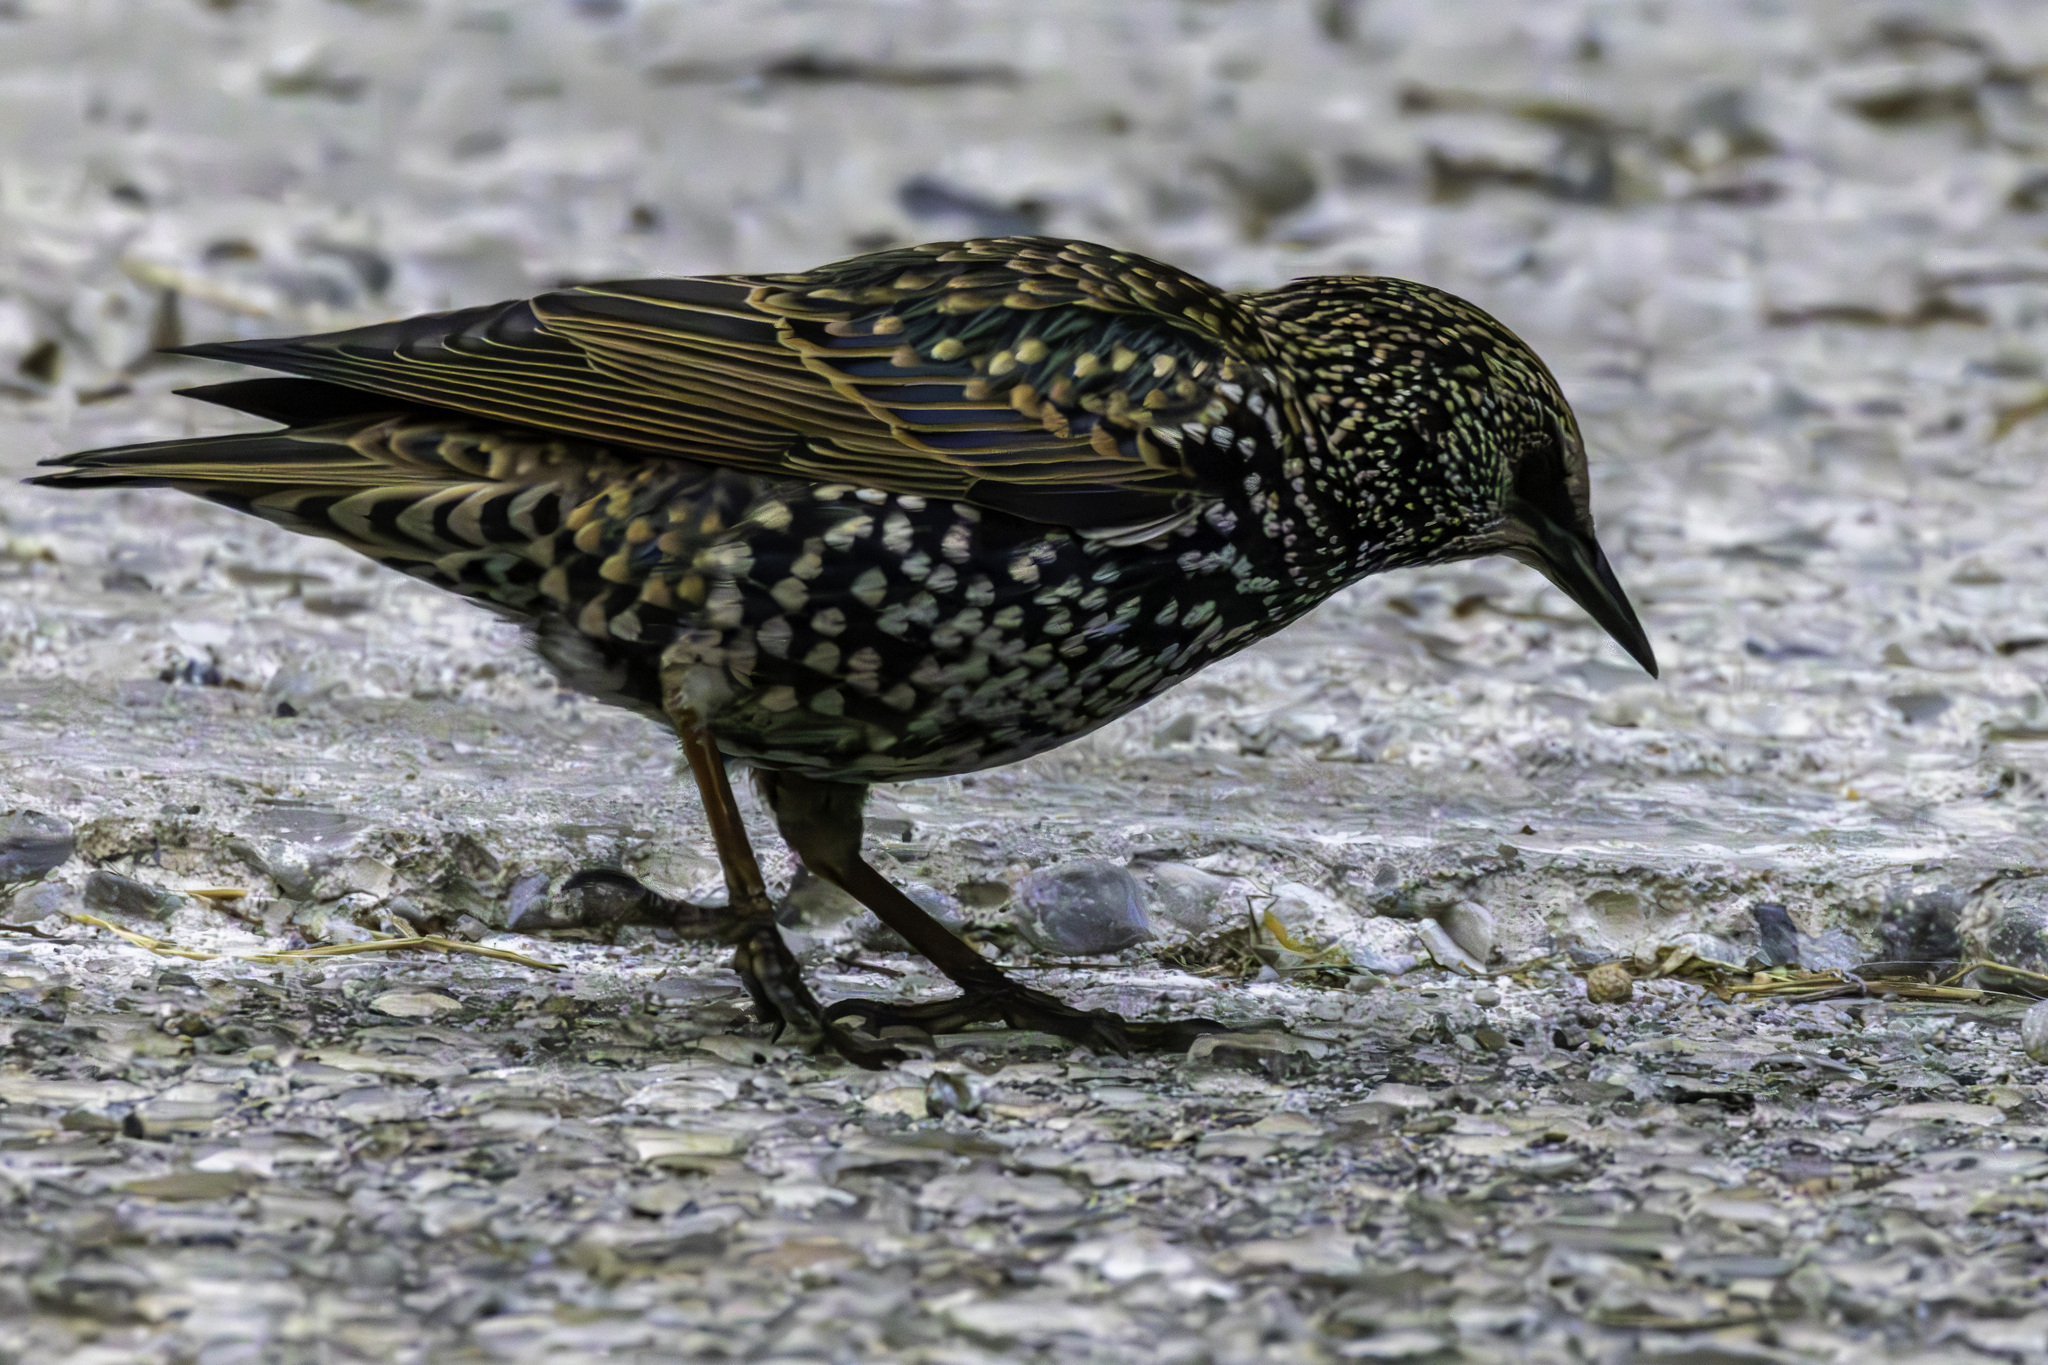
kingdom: Animalia
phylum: Chordata
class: Aves
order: Passeriformes
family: Sturnidae
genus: Sturnus
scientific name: Sturnus vulgaris
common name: Common starling
